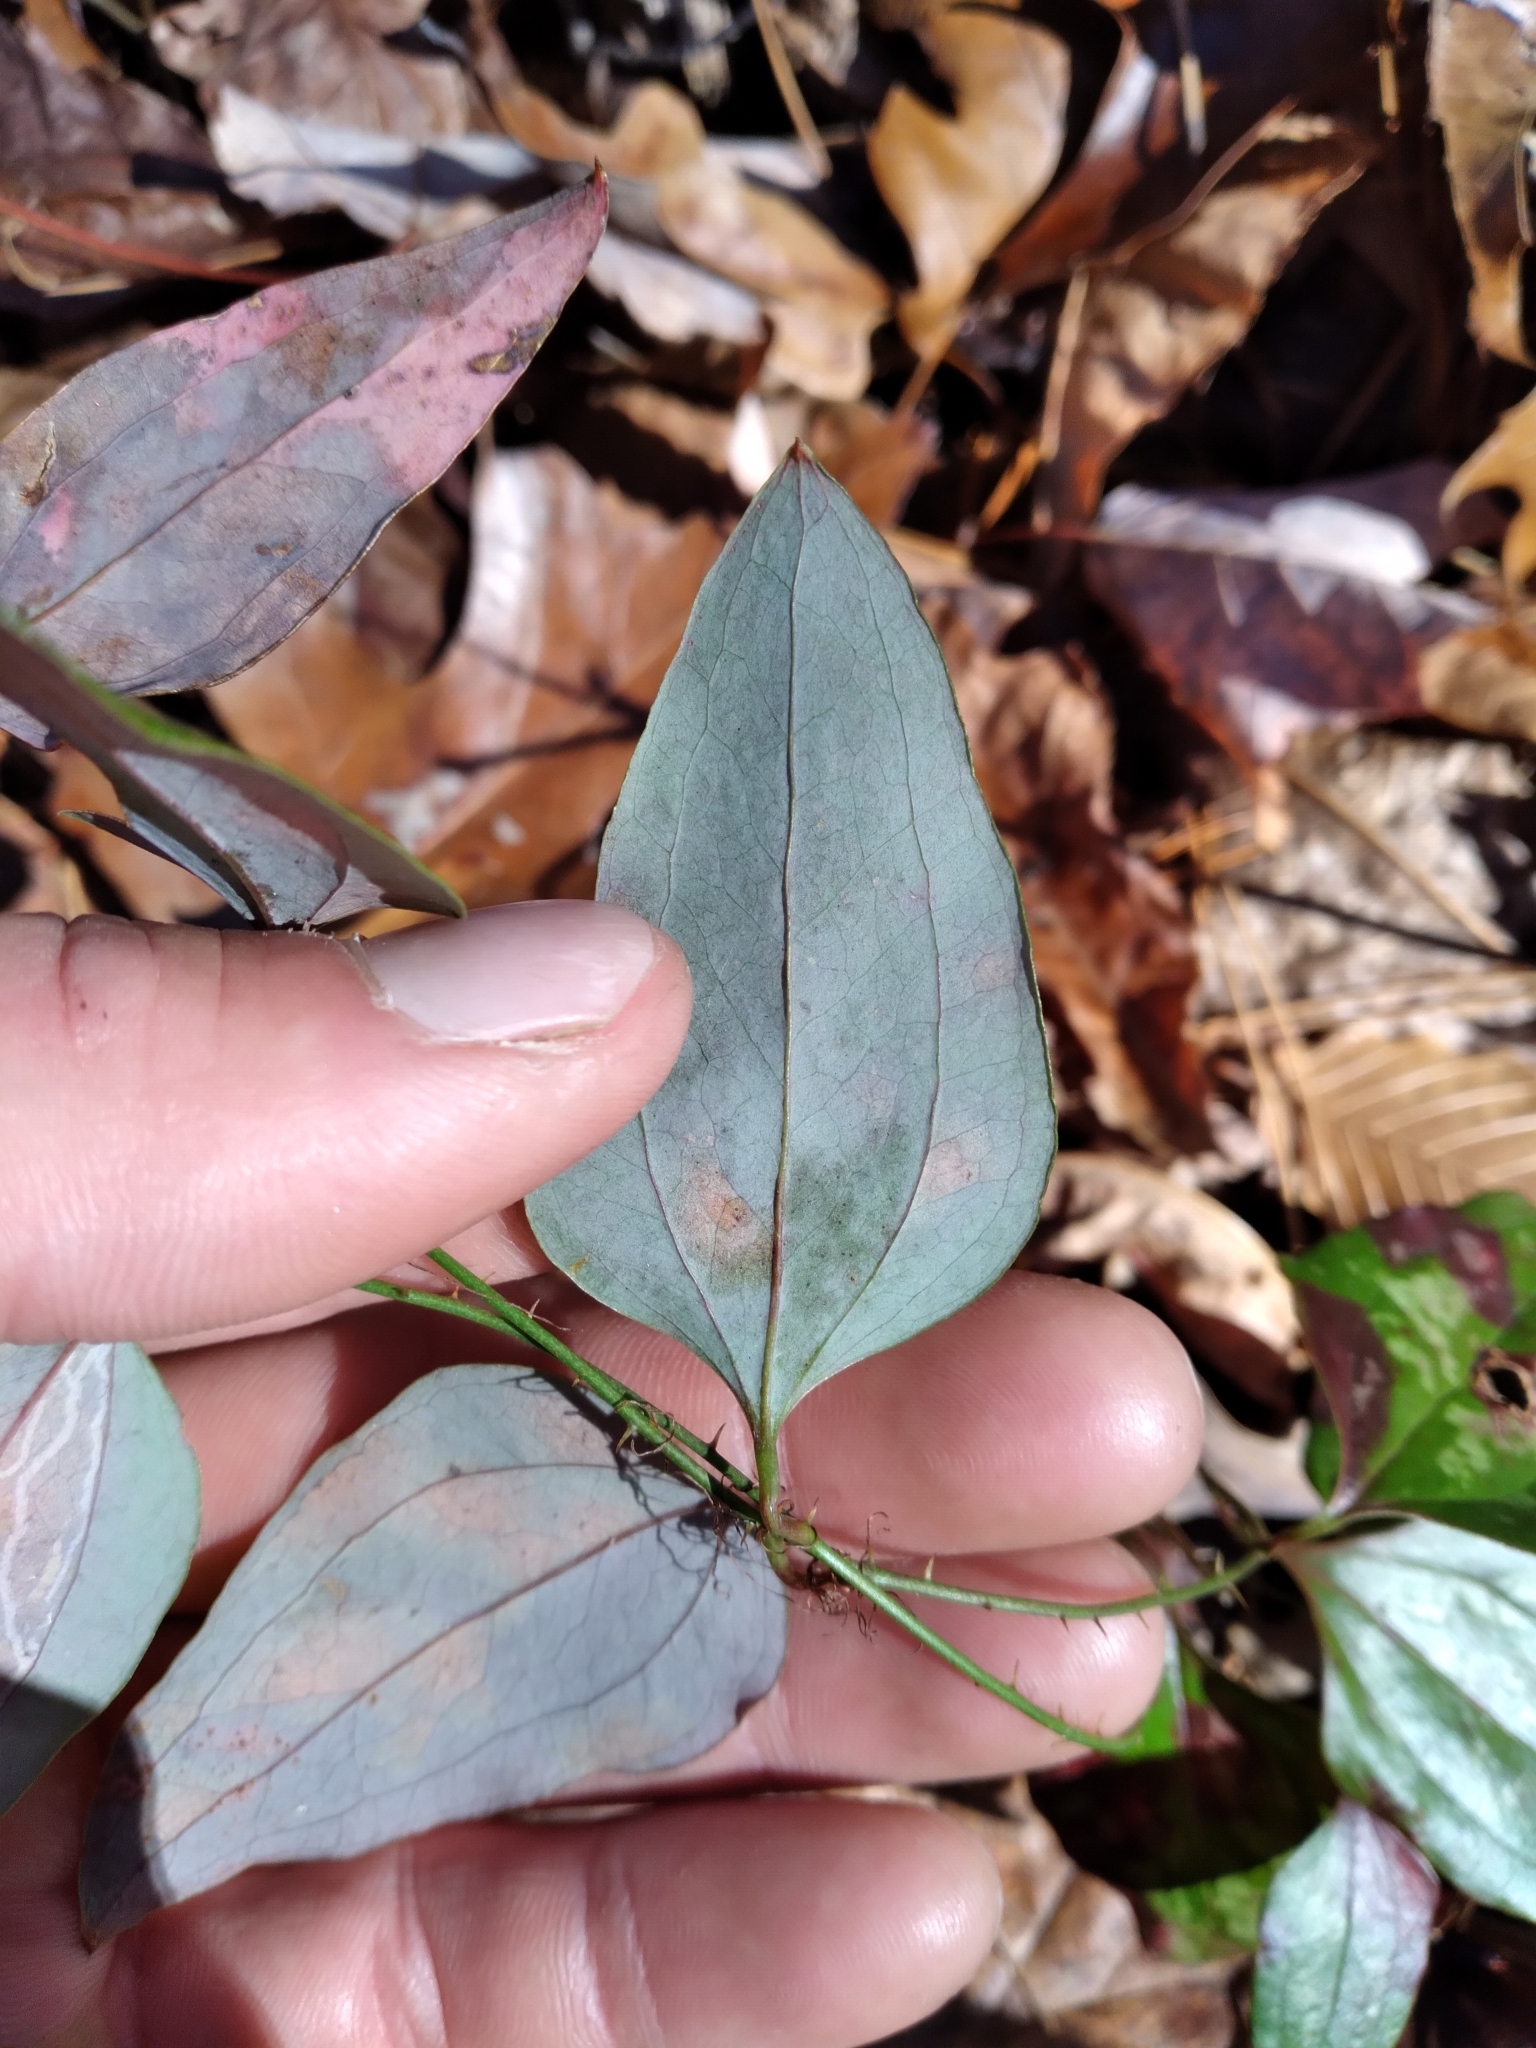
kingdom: Plantae
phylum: Tracheophyta
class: Liliopsida
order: Liliales
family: Smilacaceae
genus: Smilax
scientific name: Smilax glauca
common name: Cat greenbrier
